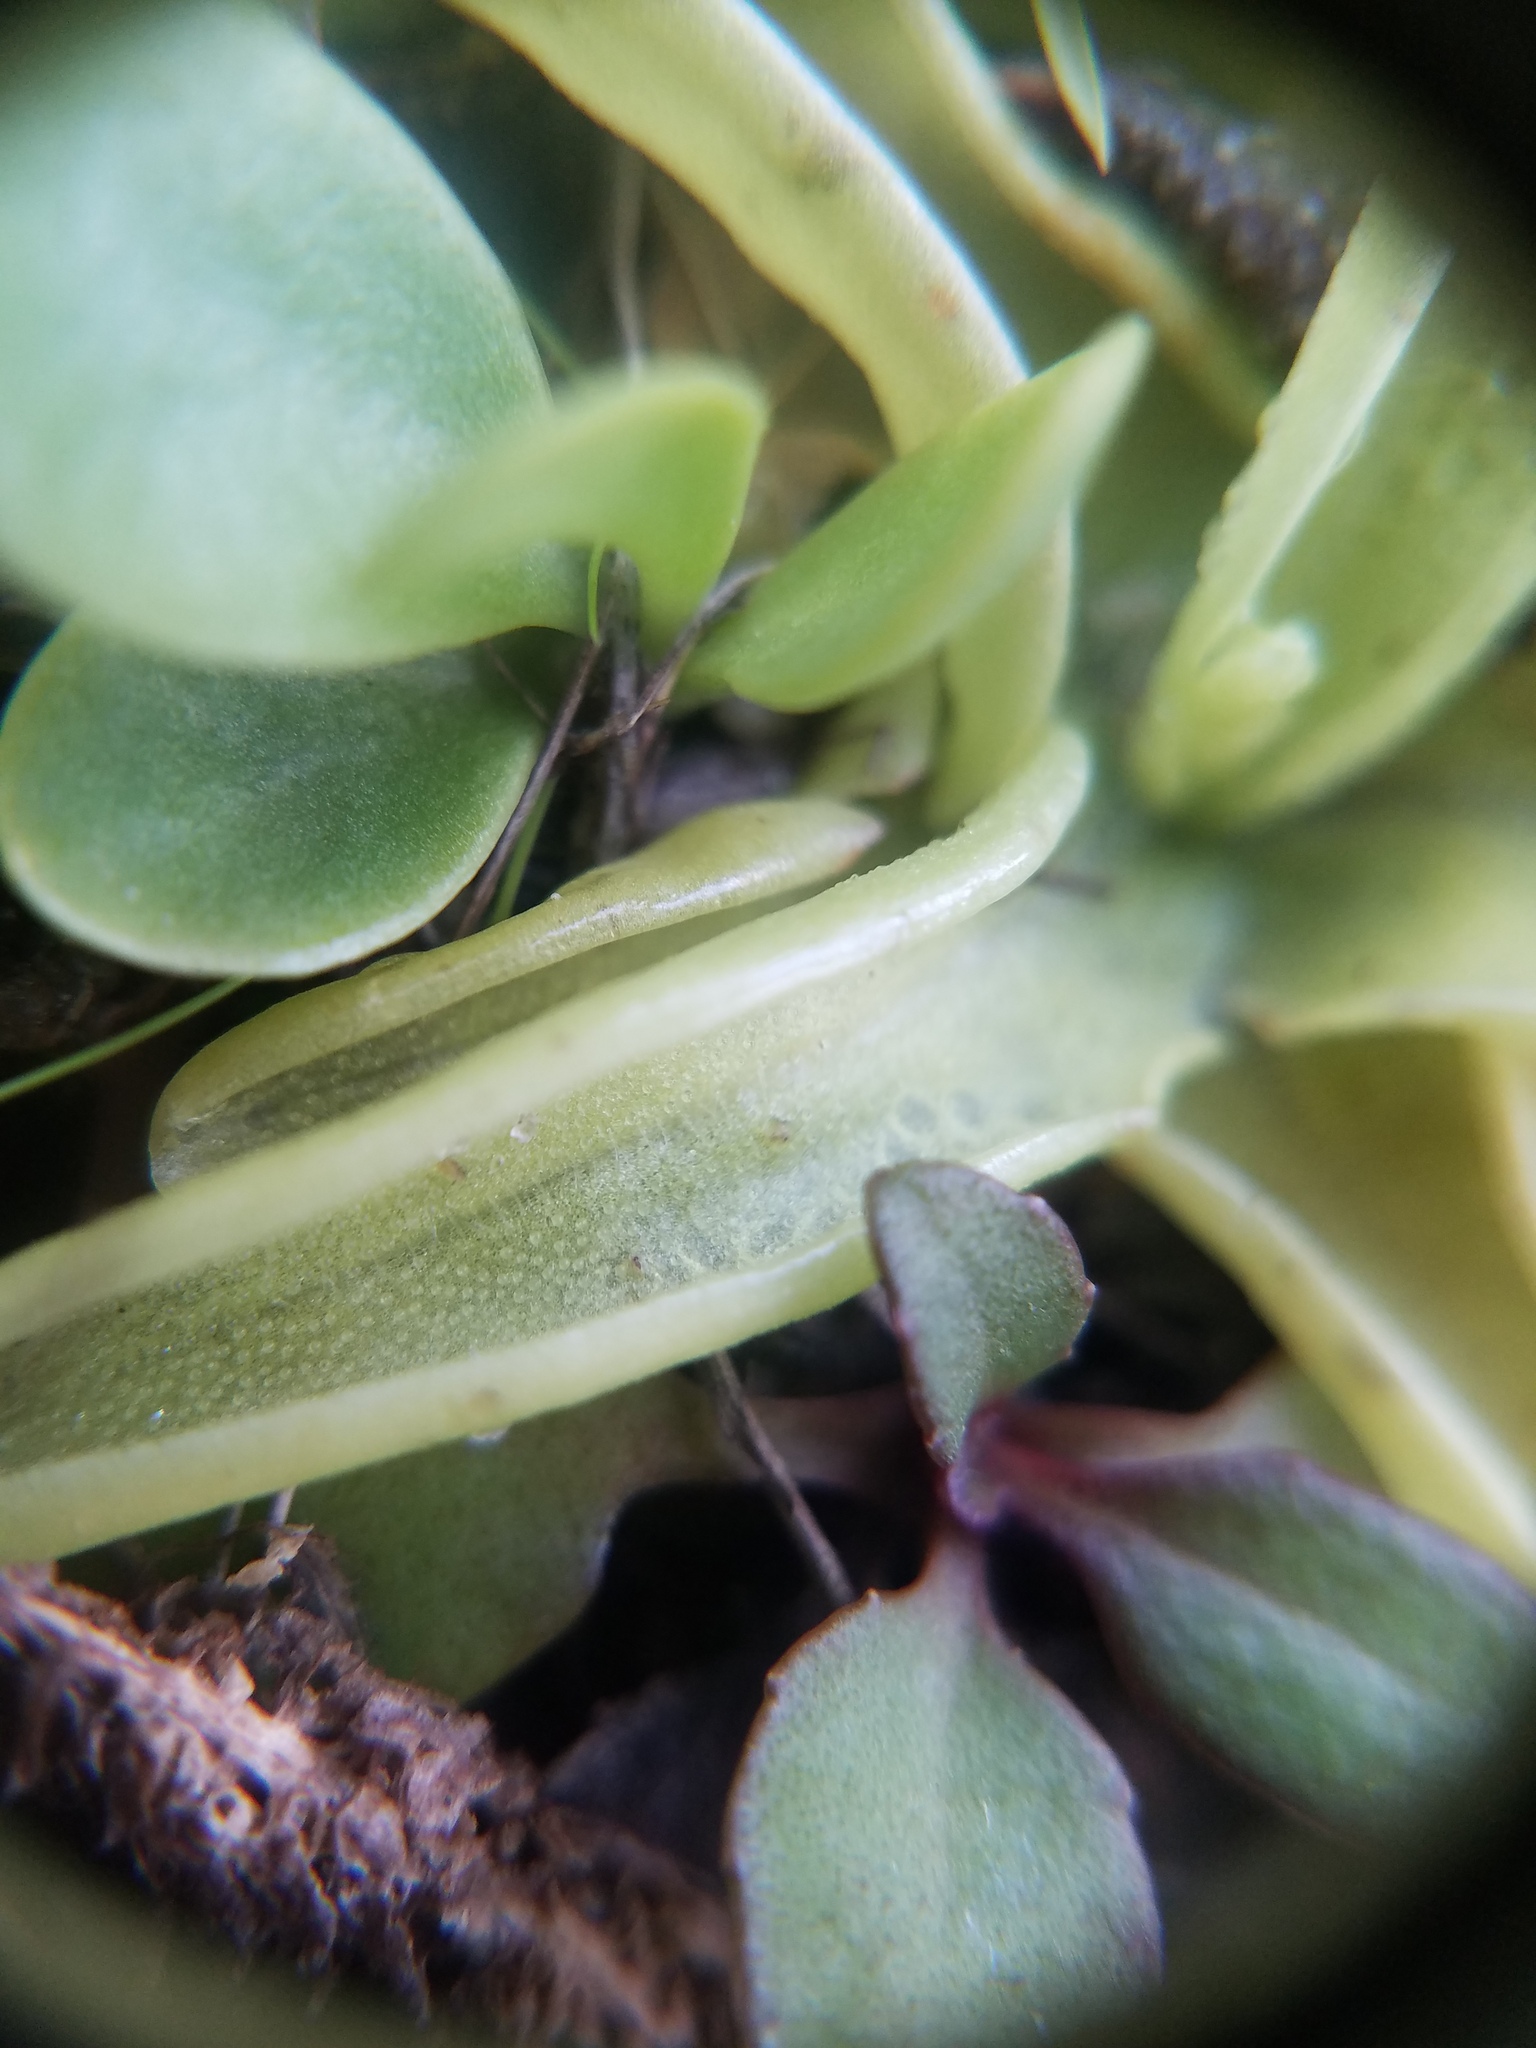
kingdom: Animalia
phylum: Arthropoda
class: Insecta
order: Lepidoptera
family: Geometridae
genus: Isoloba
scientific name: Isoloba
